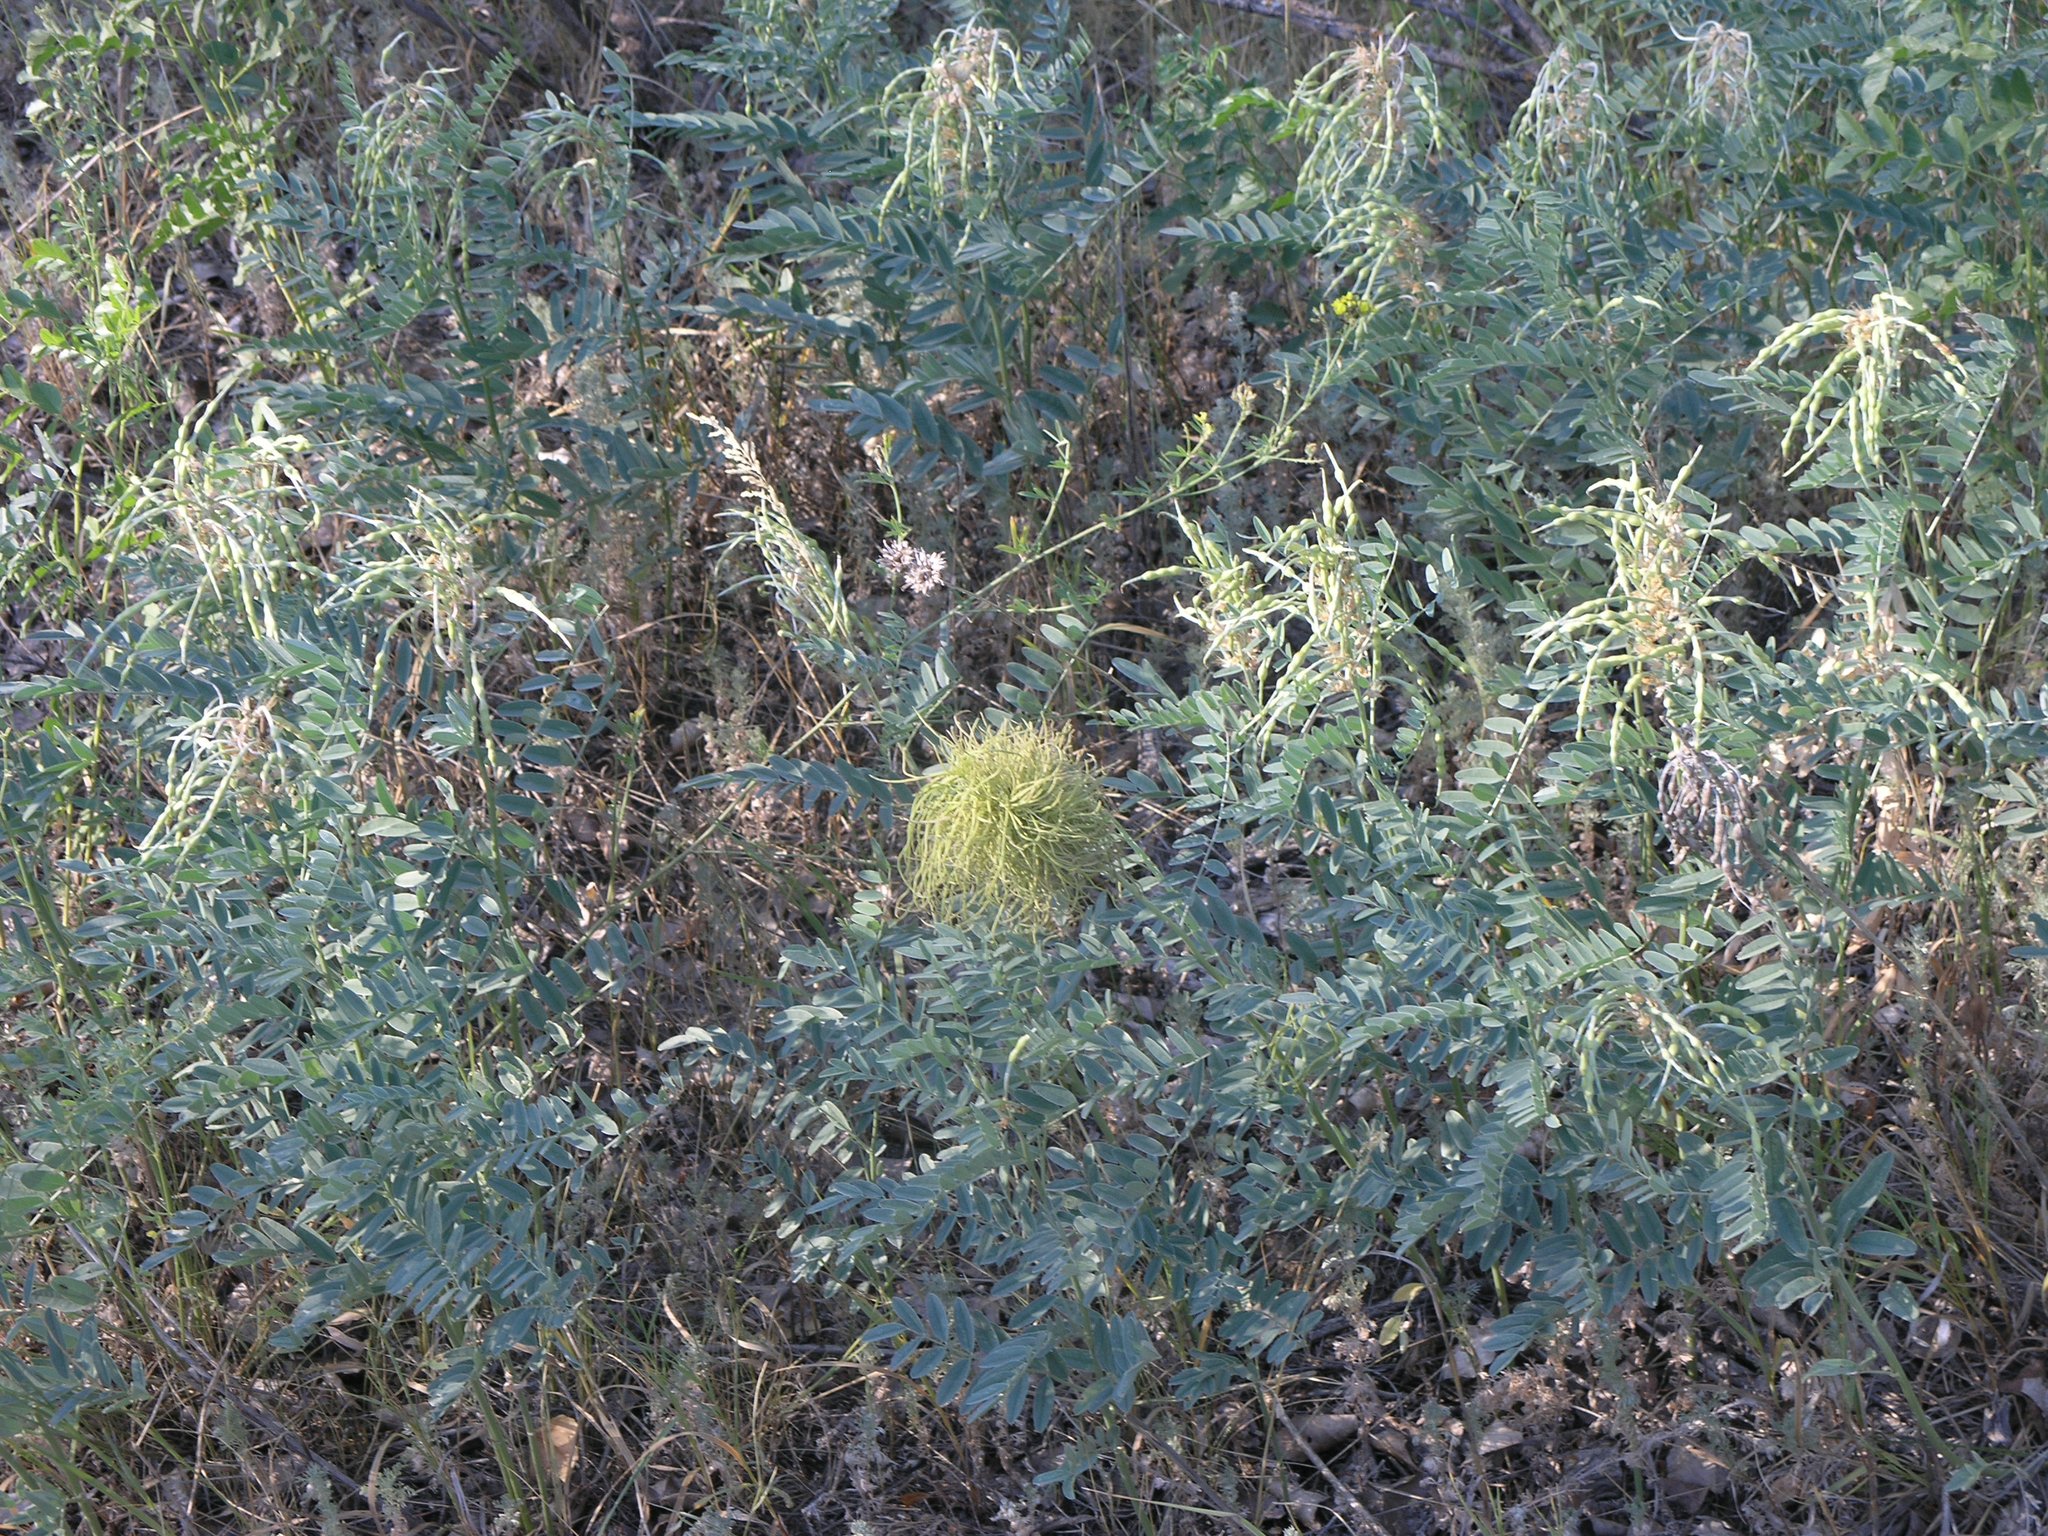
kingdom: Plantae
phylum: Tracheophyta
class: Magnoliopsida
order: Fabales
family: Fabaceae
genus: Sophora
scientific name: Sophora alopecuroides
